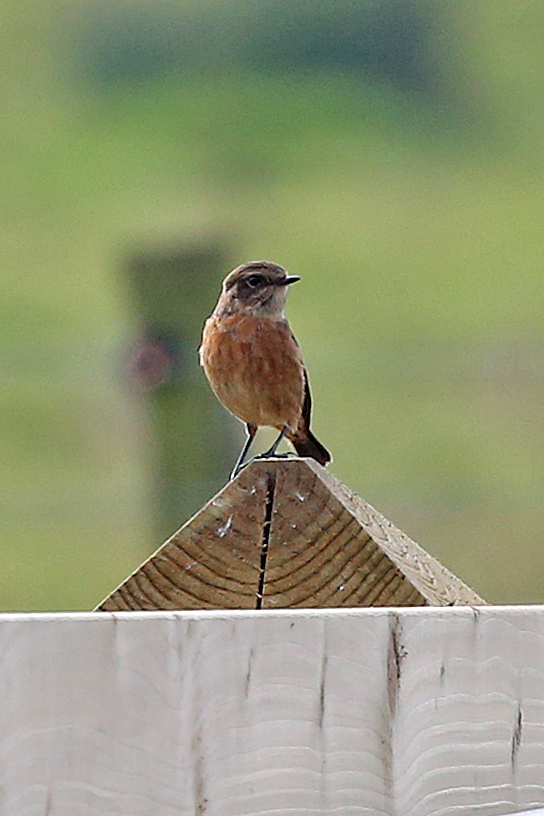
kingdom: Animalia
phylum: Chordata
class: Aves
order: Passeriformes
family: Muscicapidae
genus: Saxicola
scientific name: Saxicola rubicola
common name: European stonechat
